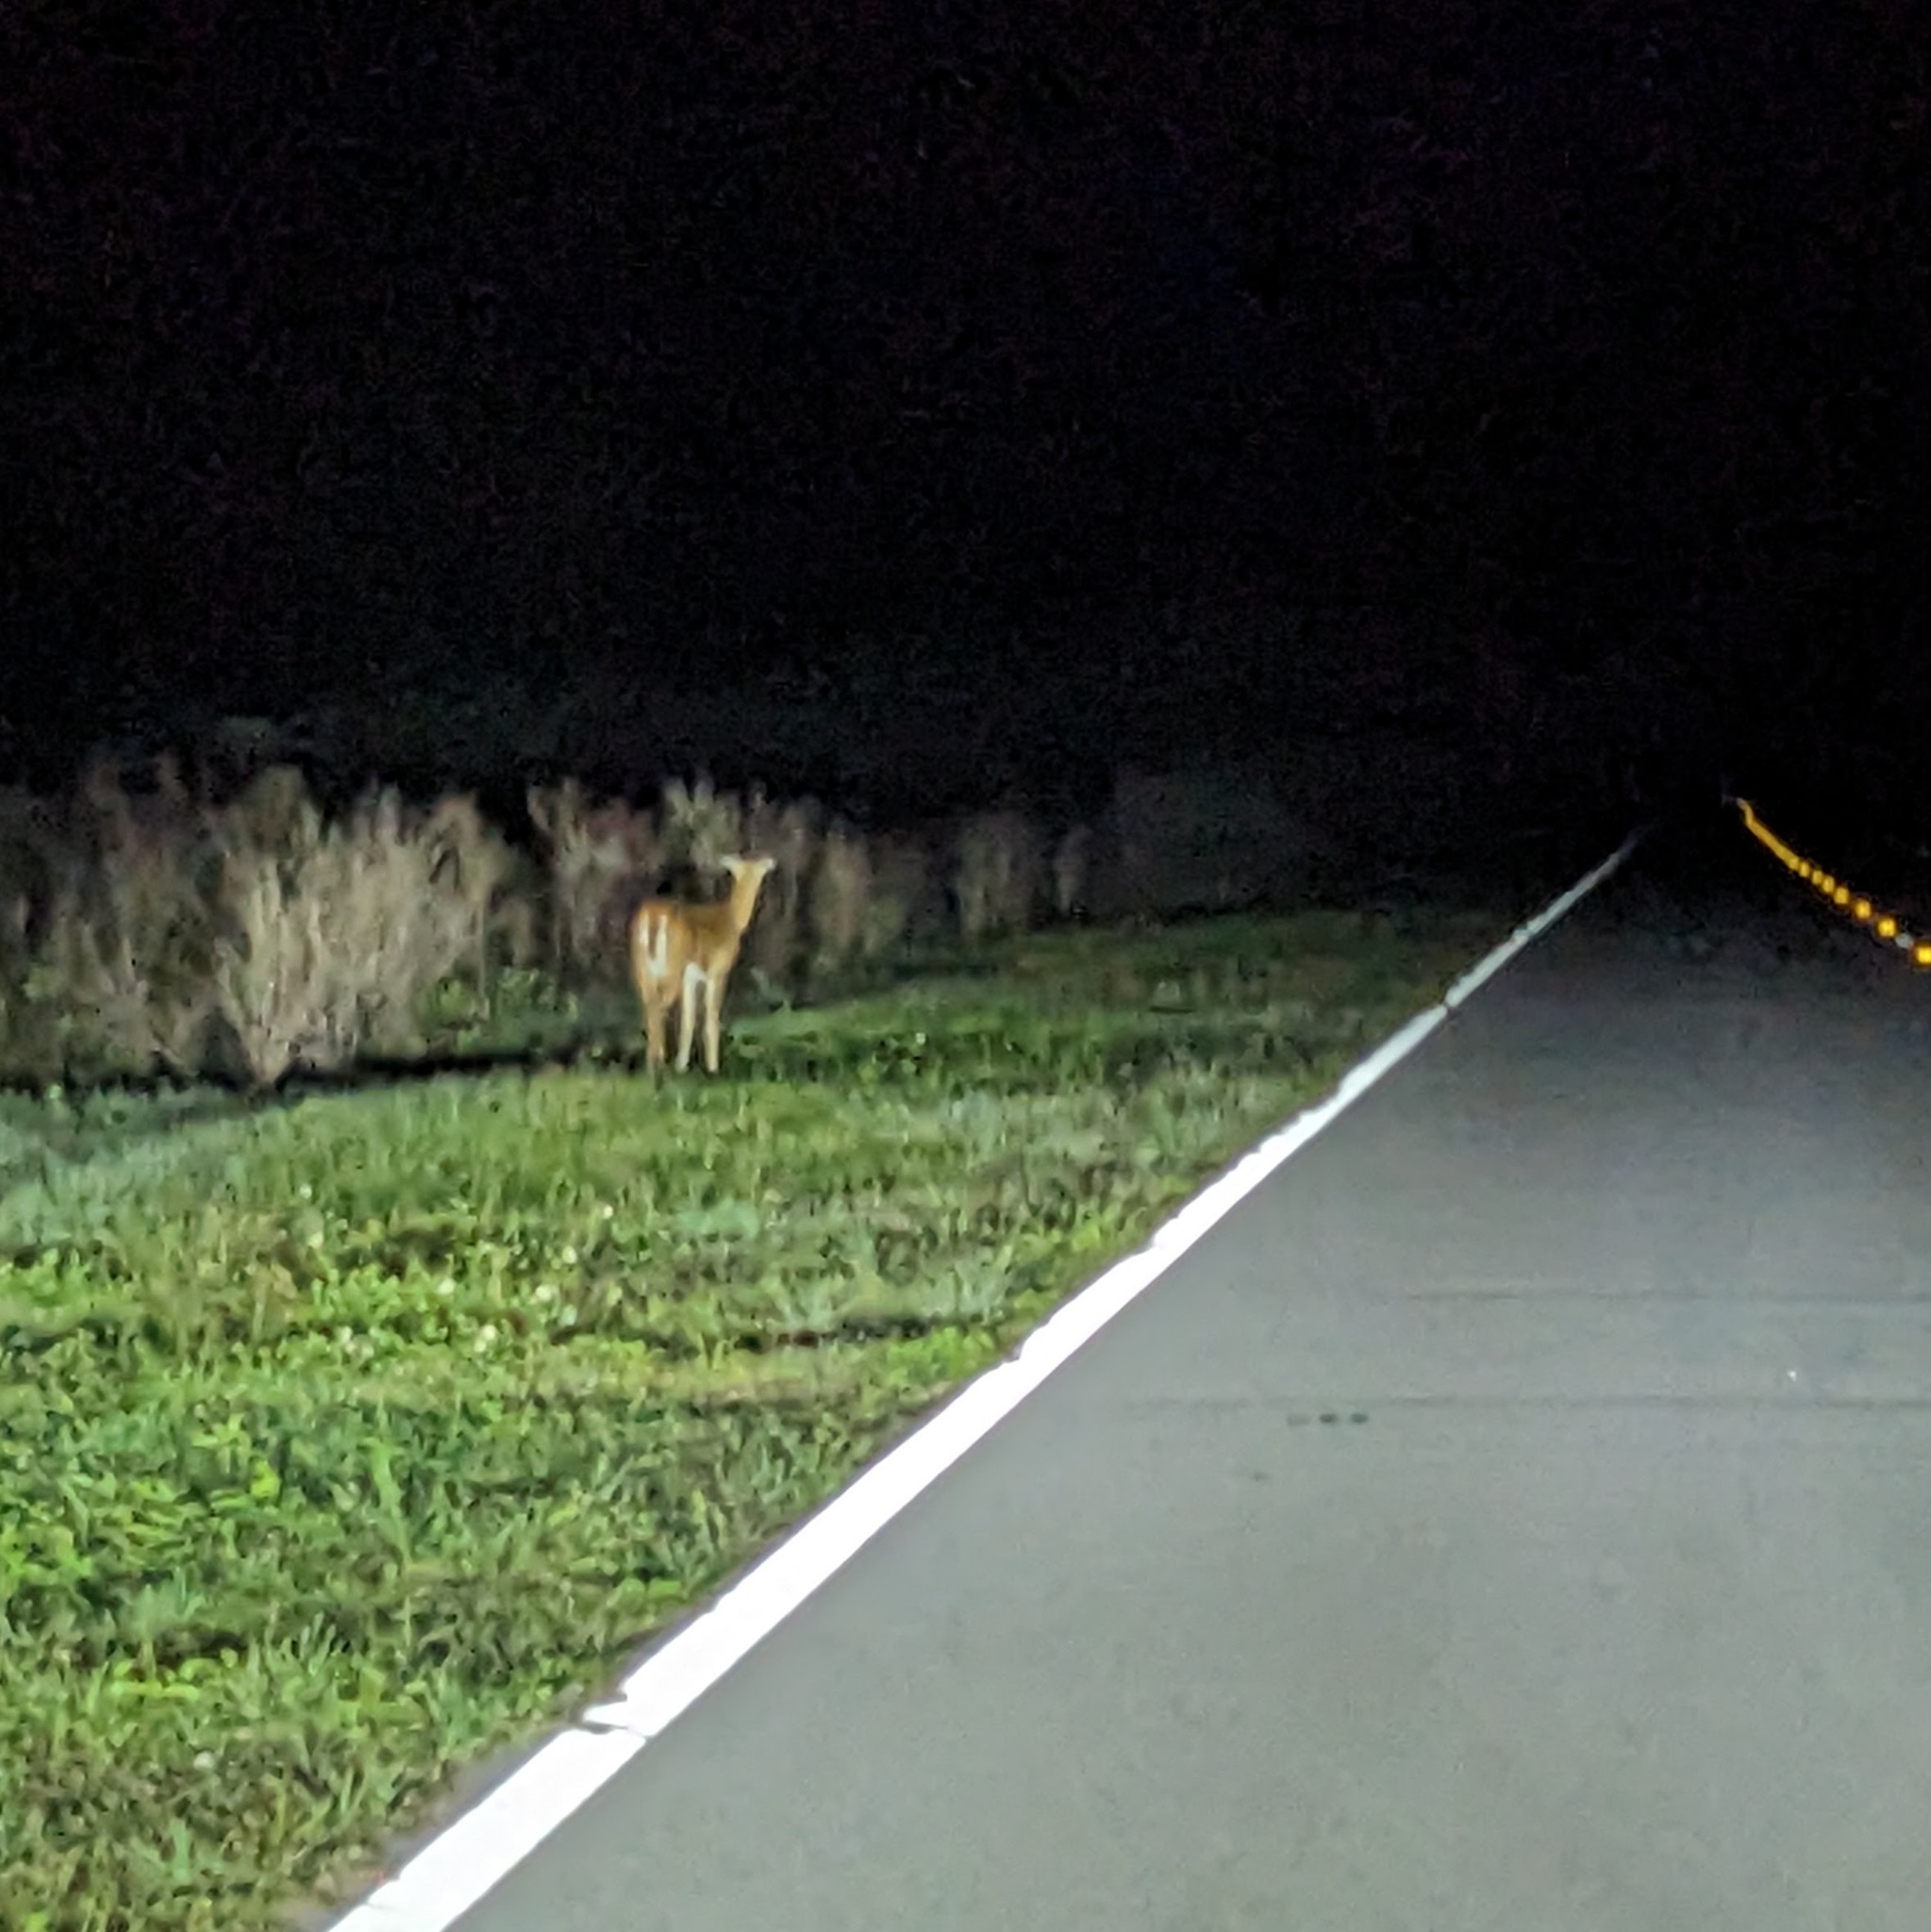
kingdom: Animalia
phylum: Chordata
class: Mammalia
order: Artiodactyla
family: Cervidae
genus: Odocoileus
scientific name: Odocoileus virginianus
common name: White-tailed deer
